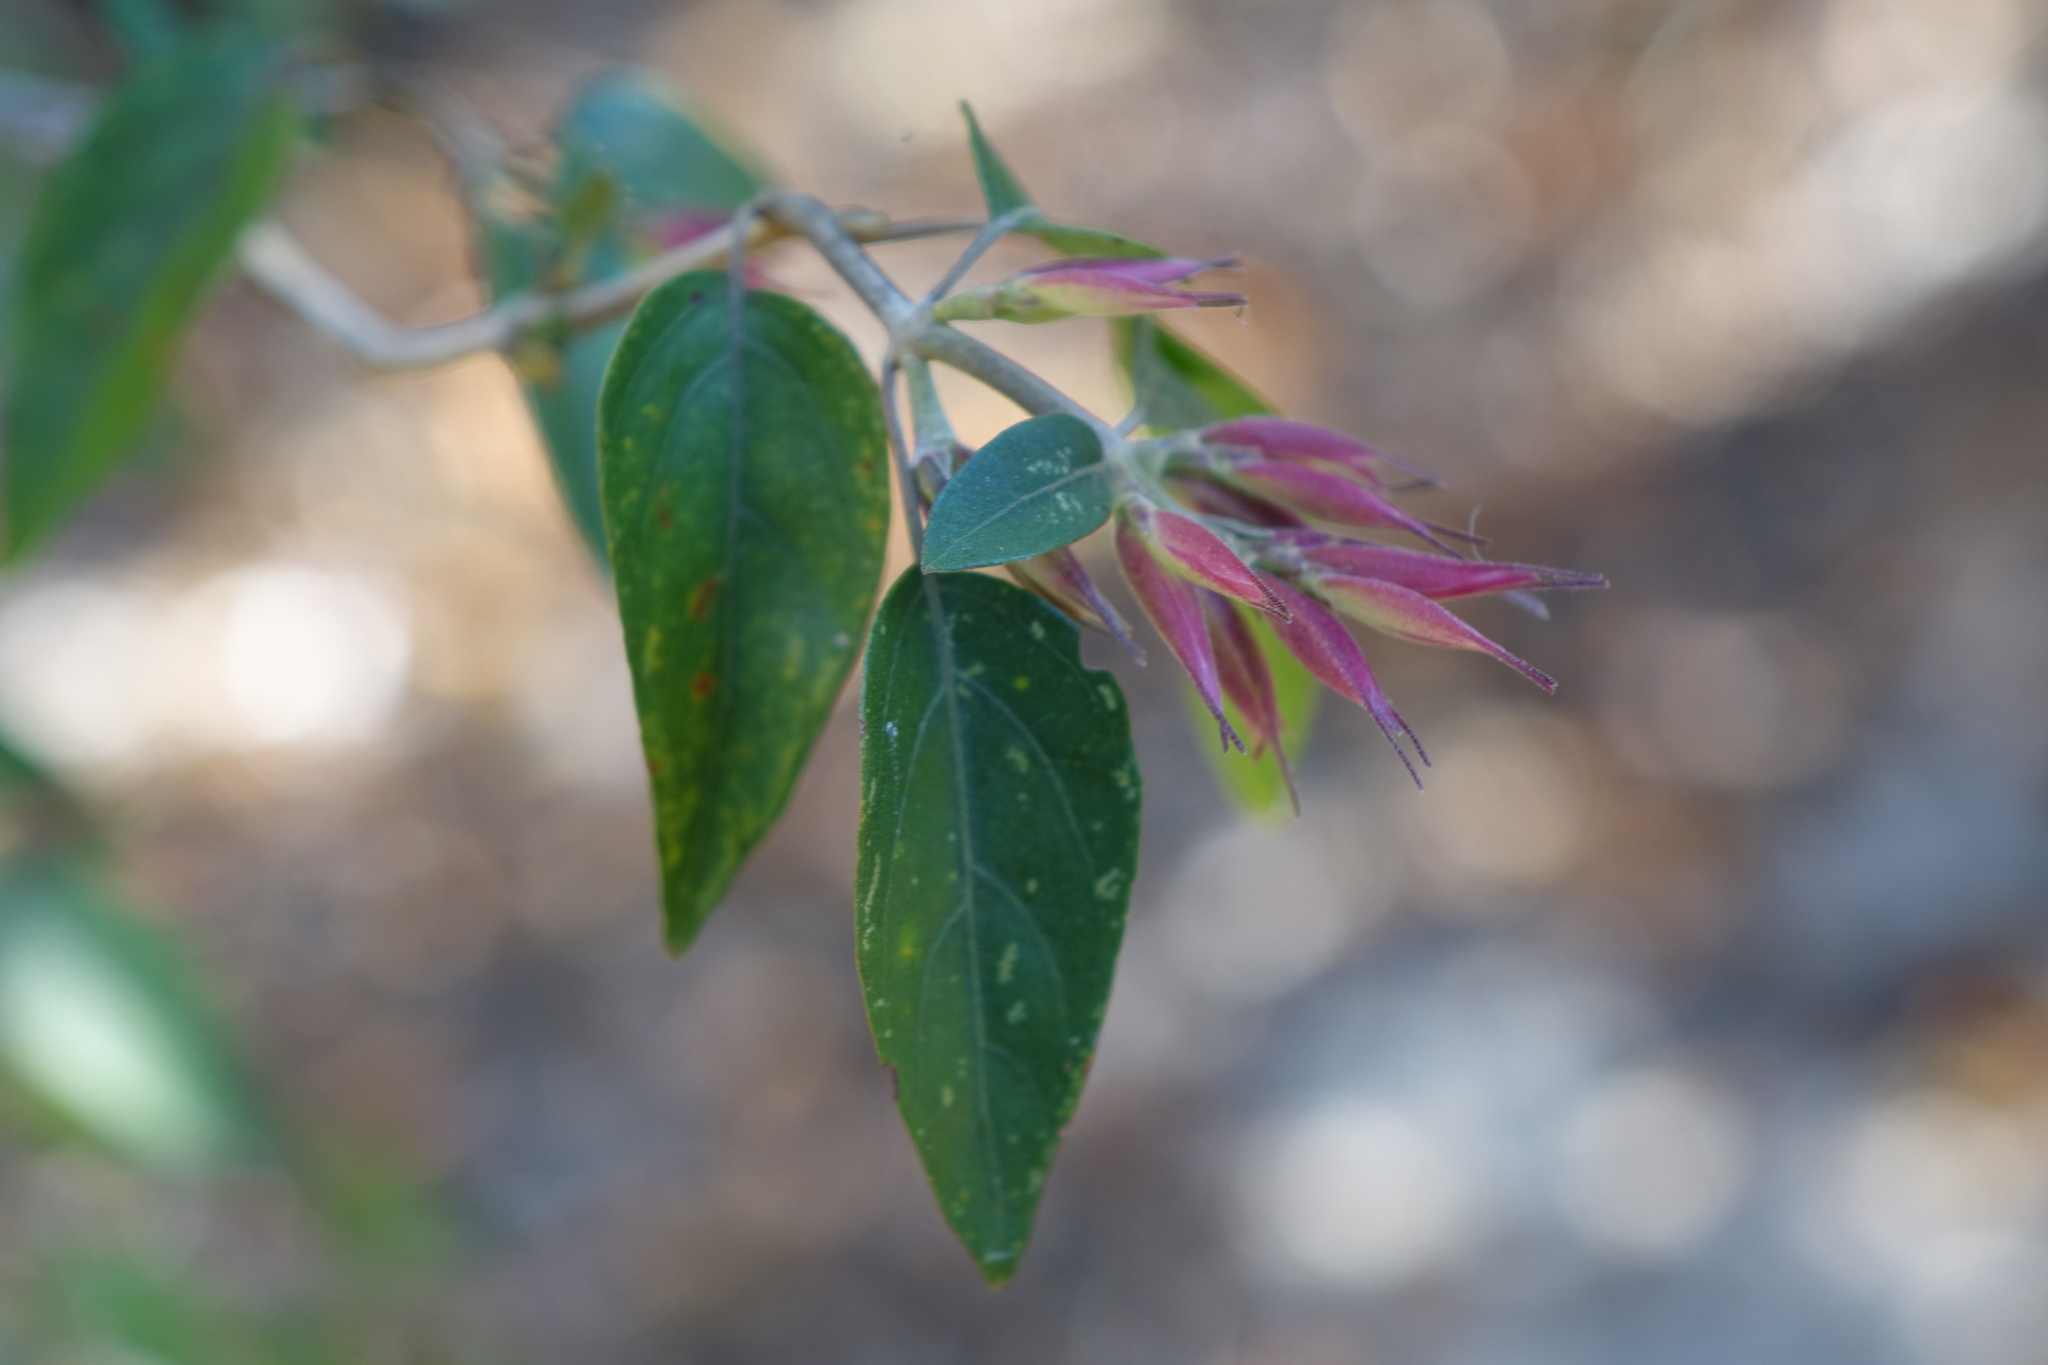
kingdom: Plantae
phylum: Tracheophyta
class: Magnoliopsida
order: Lamiales
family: Acanthaceae
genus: Hypoestes
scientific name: Hypoestes caudata
